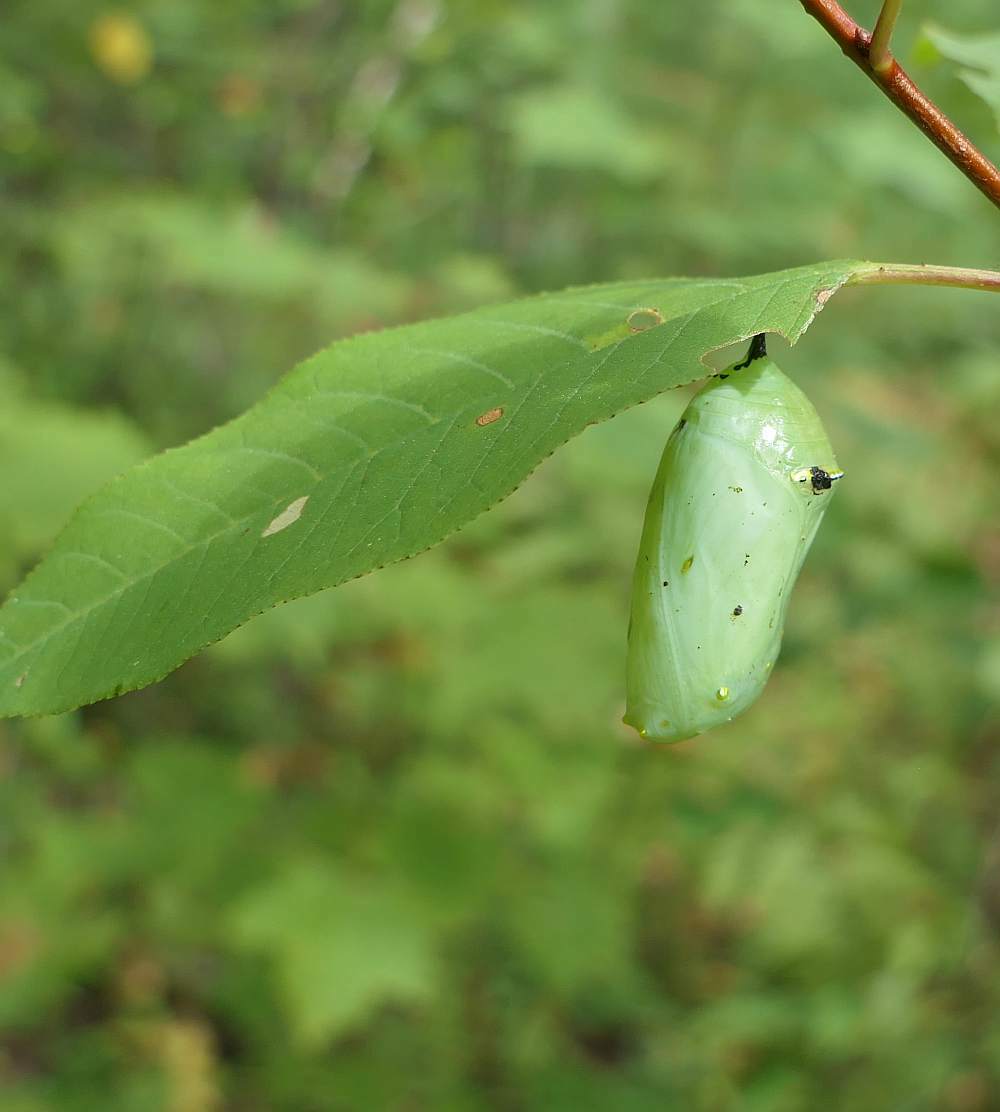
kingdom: Animalia
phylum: Arthropoda
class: Insecta
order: Lepidoptera
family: Nymphalidae
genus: Danaus
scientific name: Danaus plexippus
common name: Monarch
